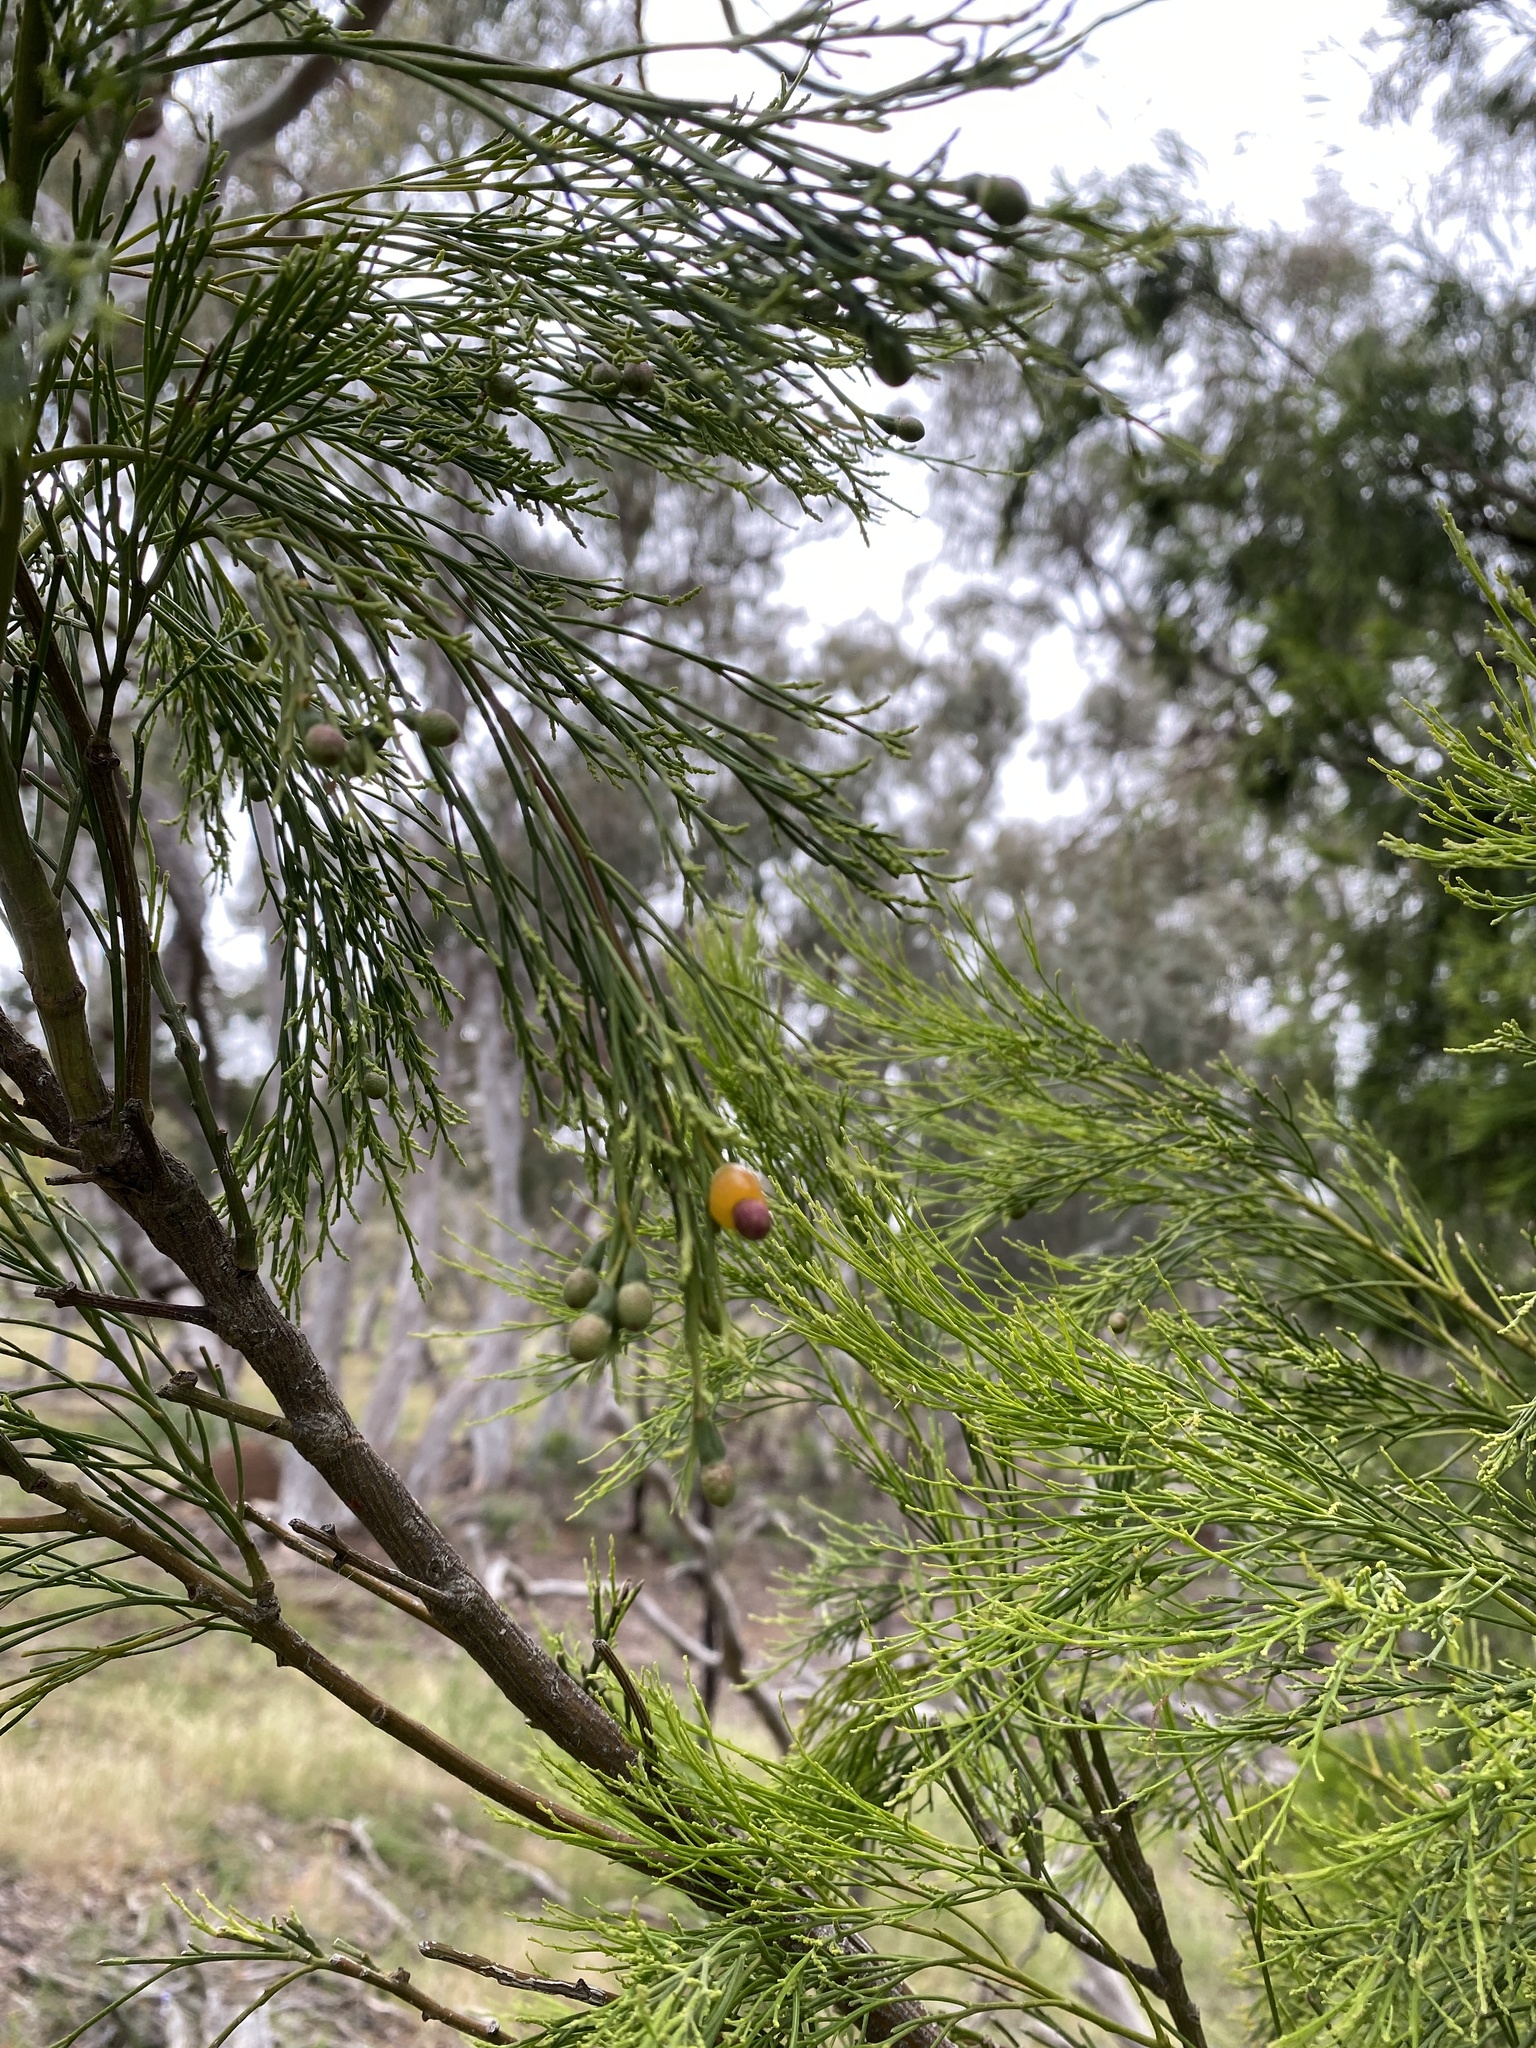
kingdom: Plantae
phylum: Tracheophyta
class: Magnoliopsida
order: Santalales
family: Santalaceae
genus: Exocarpos
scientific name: Exocarpos cupressiformis
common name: Cherry ballart
